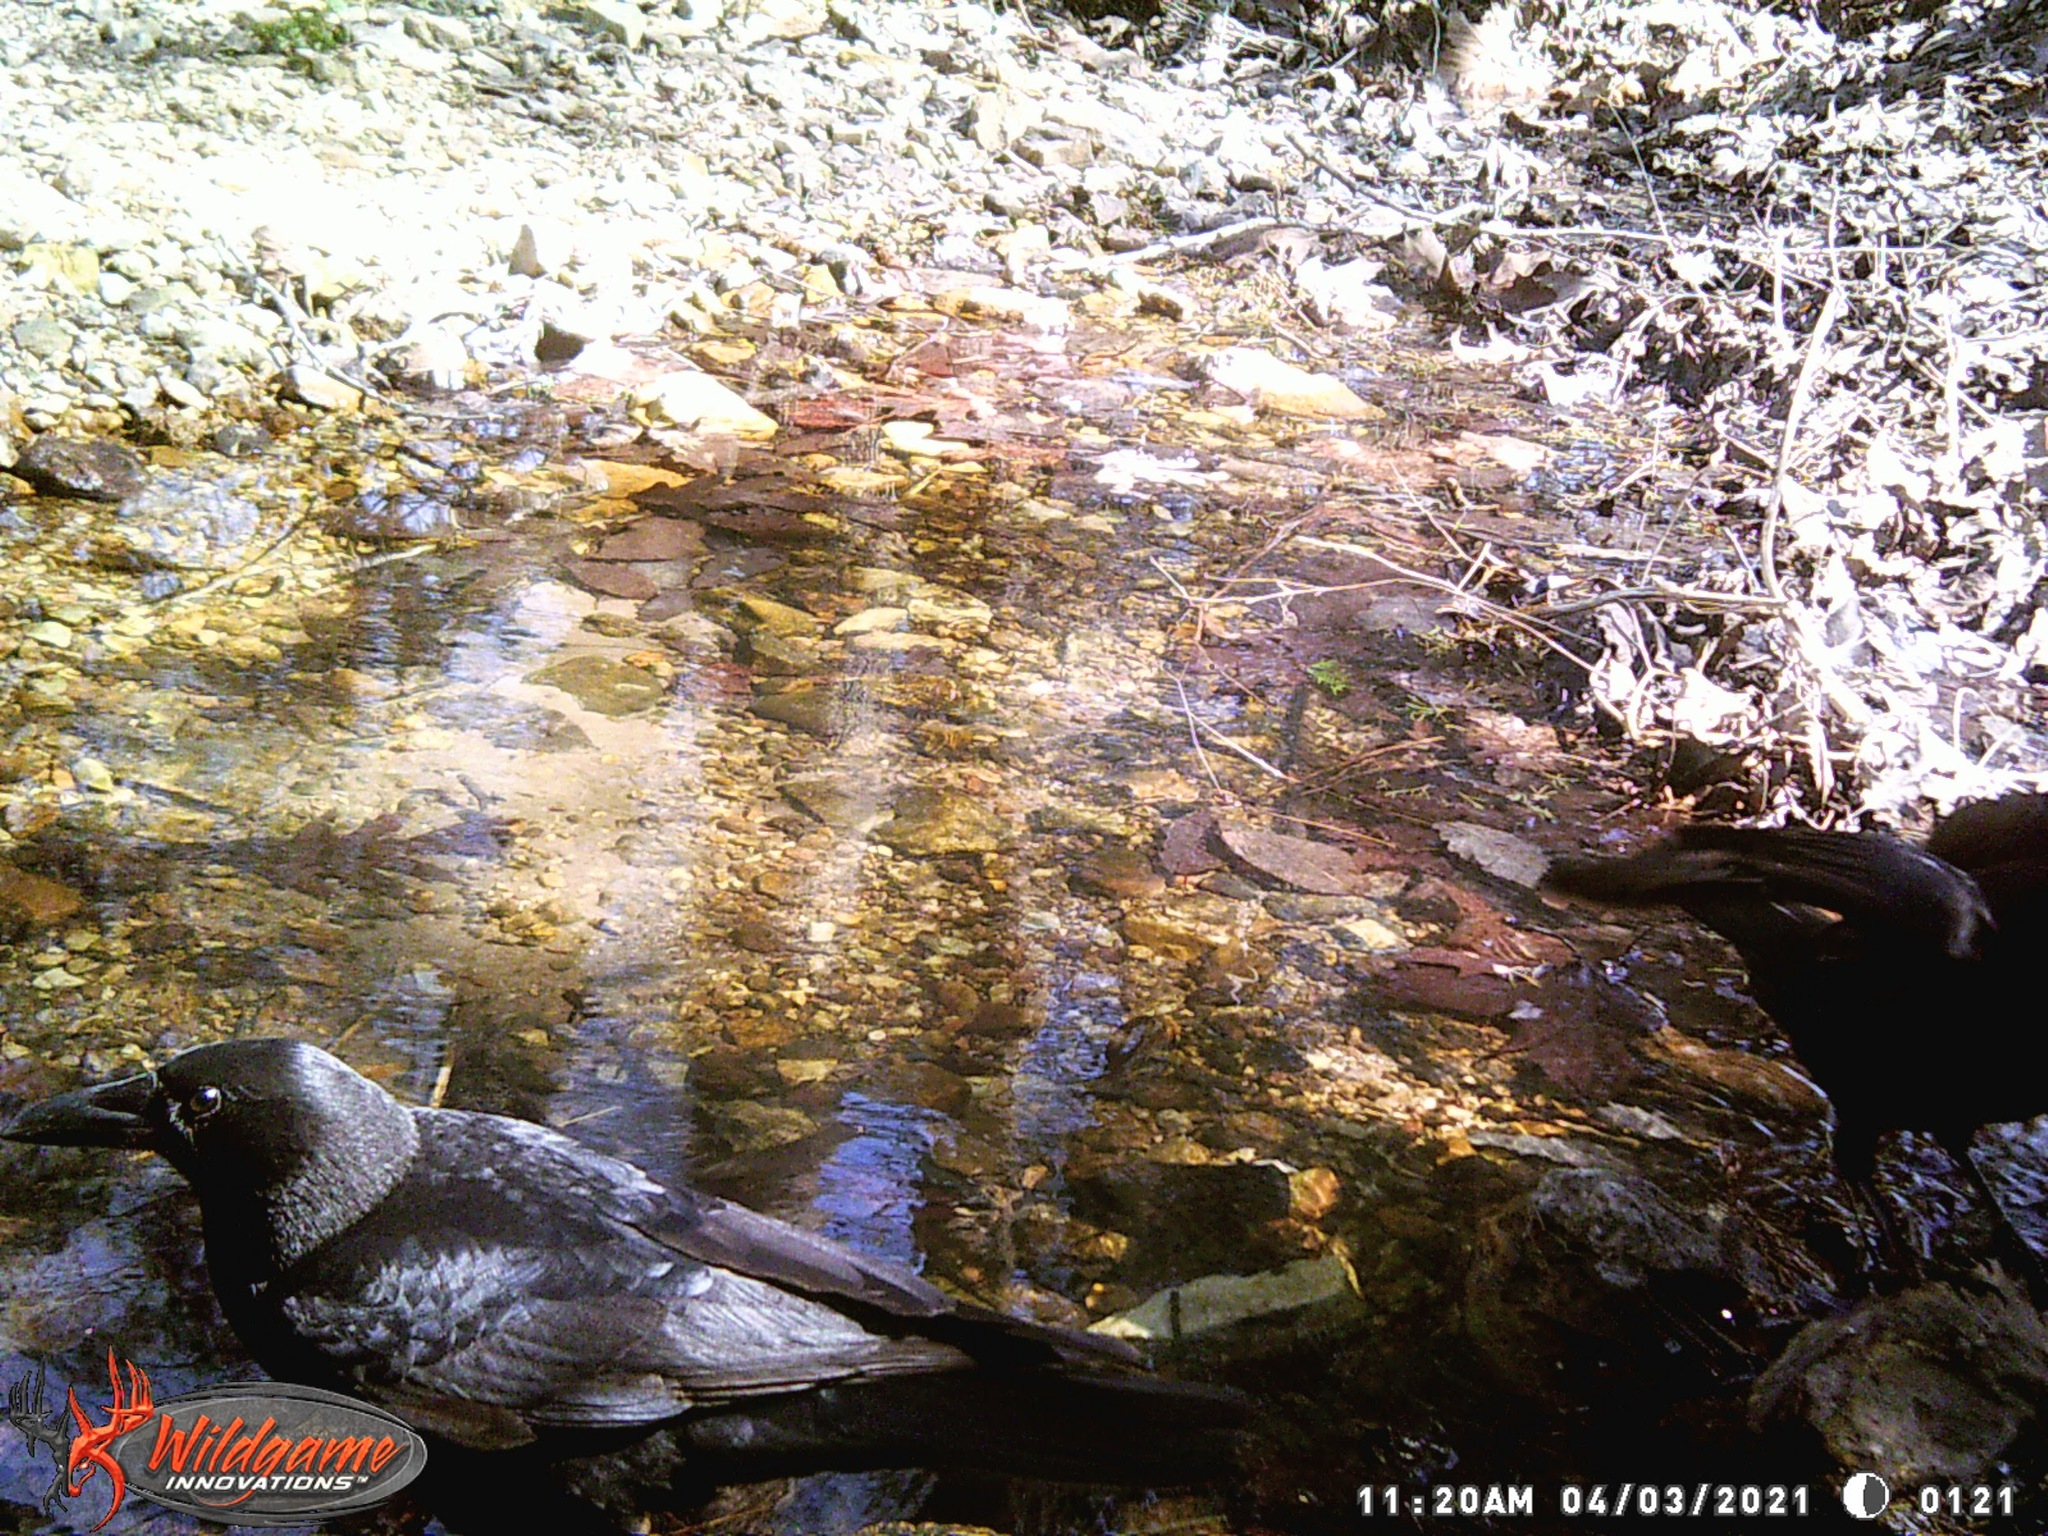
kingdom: Animalia
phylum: Chordata
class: Aves
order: Passeriformes
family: Corvidae
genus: Corvus
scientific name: Corvus brachyrhynchos
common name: American crow
